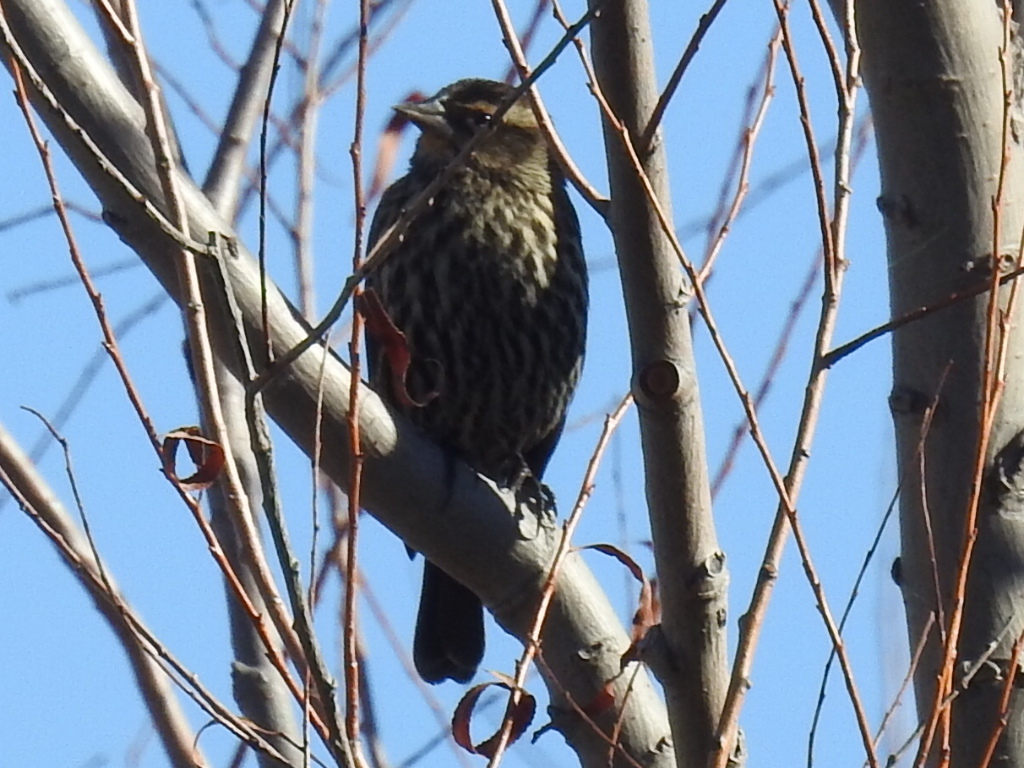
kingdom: Animalia
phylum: Chordata
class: Aves
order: Passeriformes
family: Icteridae
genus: Agelaius
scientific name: Agelaius phoeniceus
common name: Red-winged blackbird
